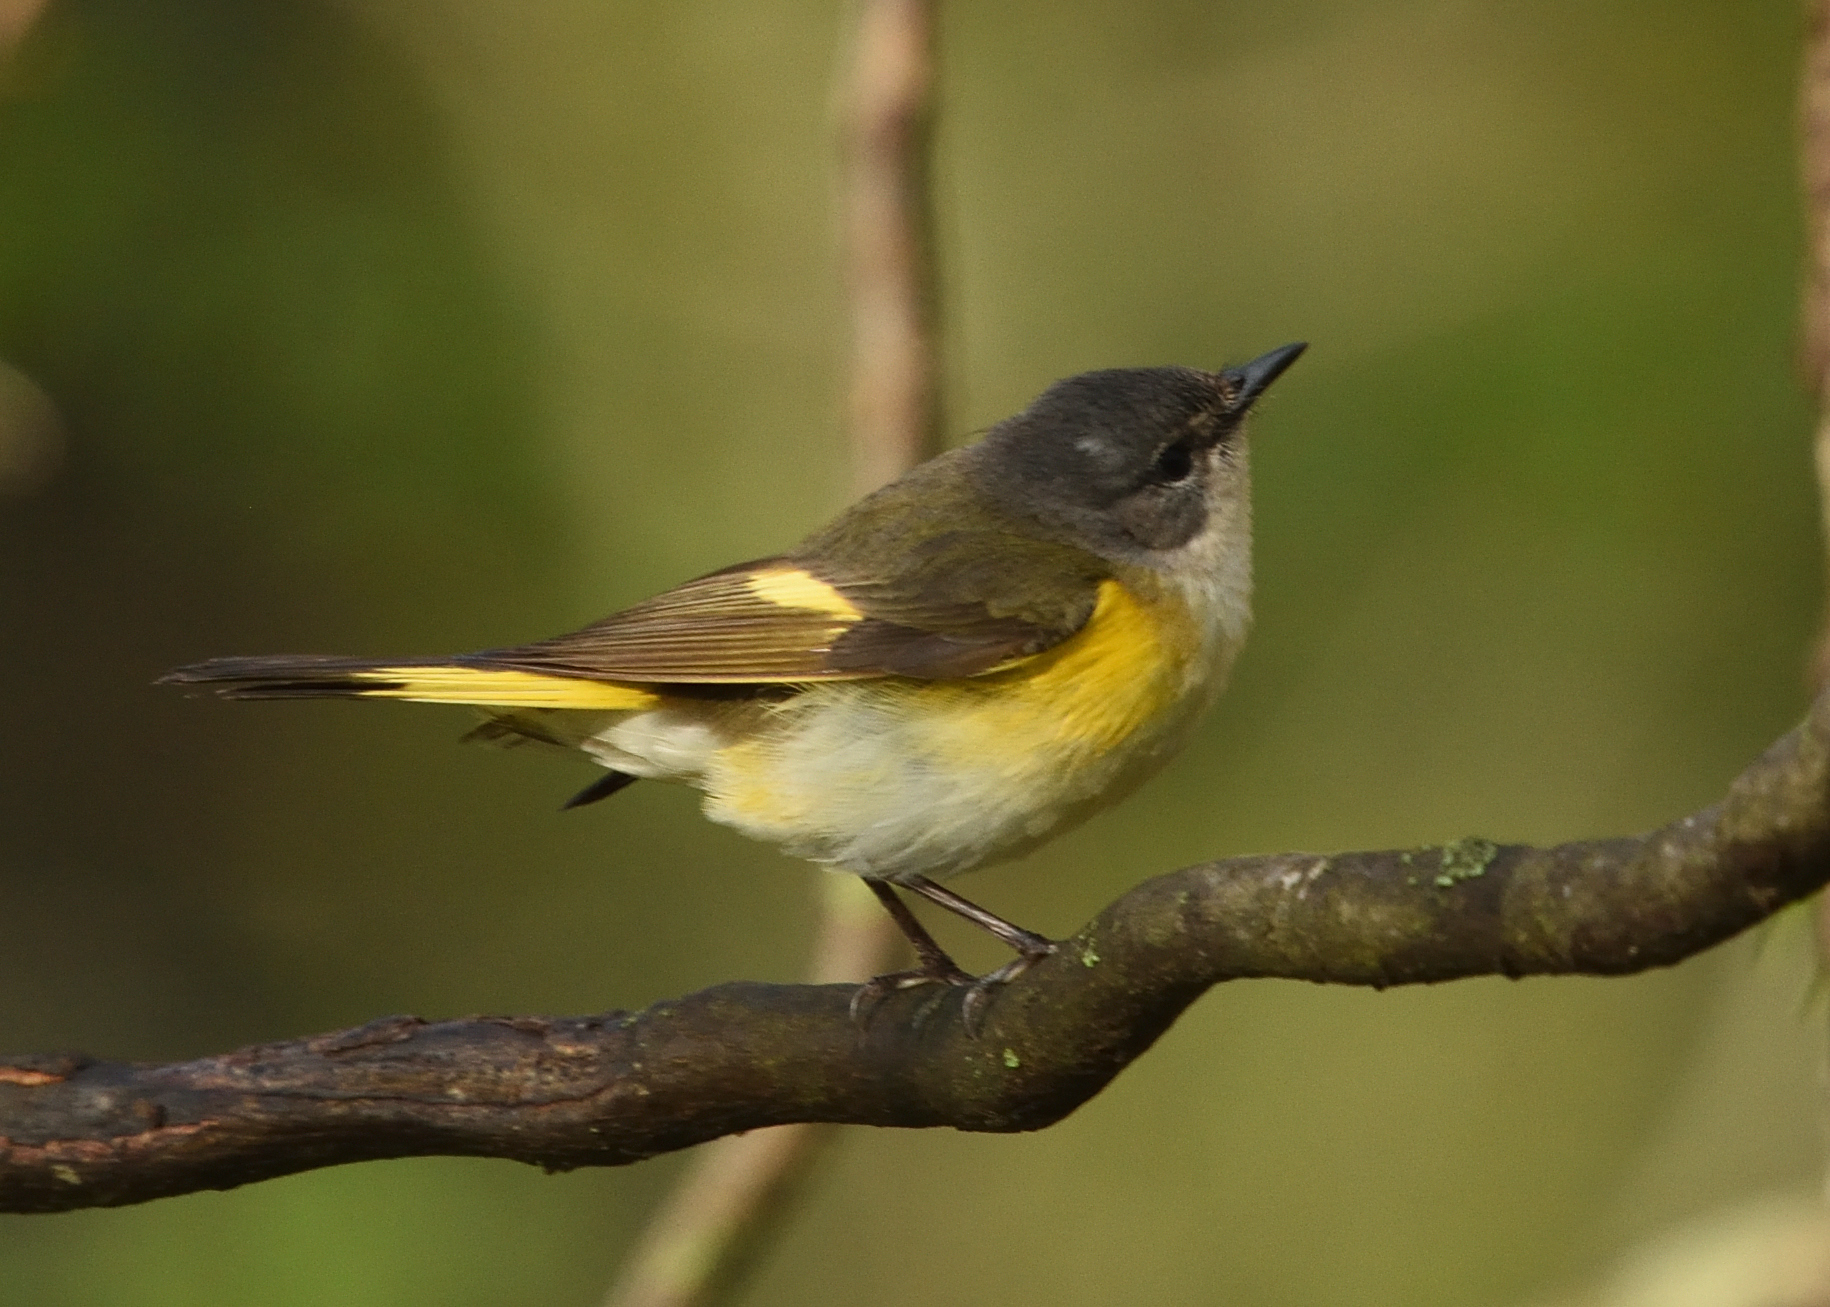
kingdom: Animalia
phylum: Chordata
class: Aves
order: Passeriformes
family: Parulidae
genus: Setophaga
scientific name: Setophaga ruticilla
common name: American redstart
